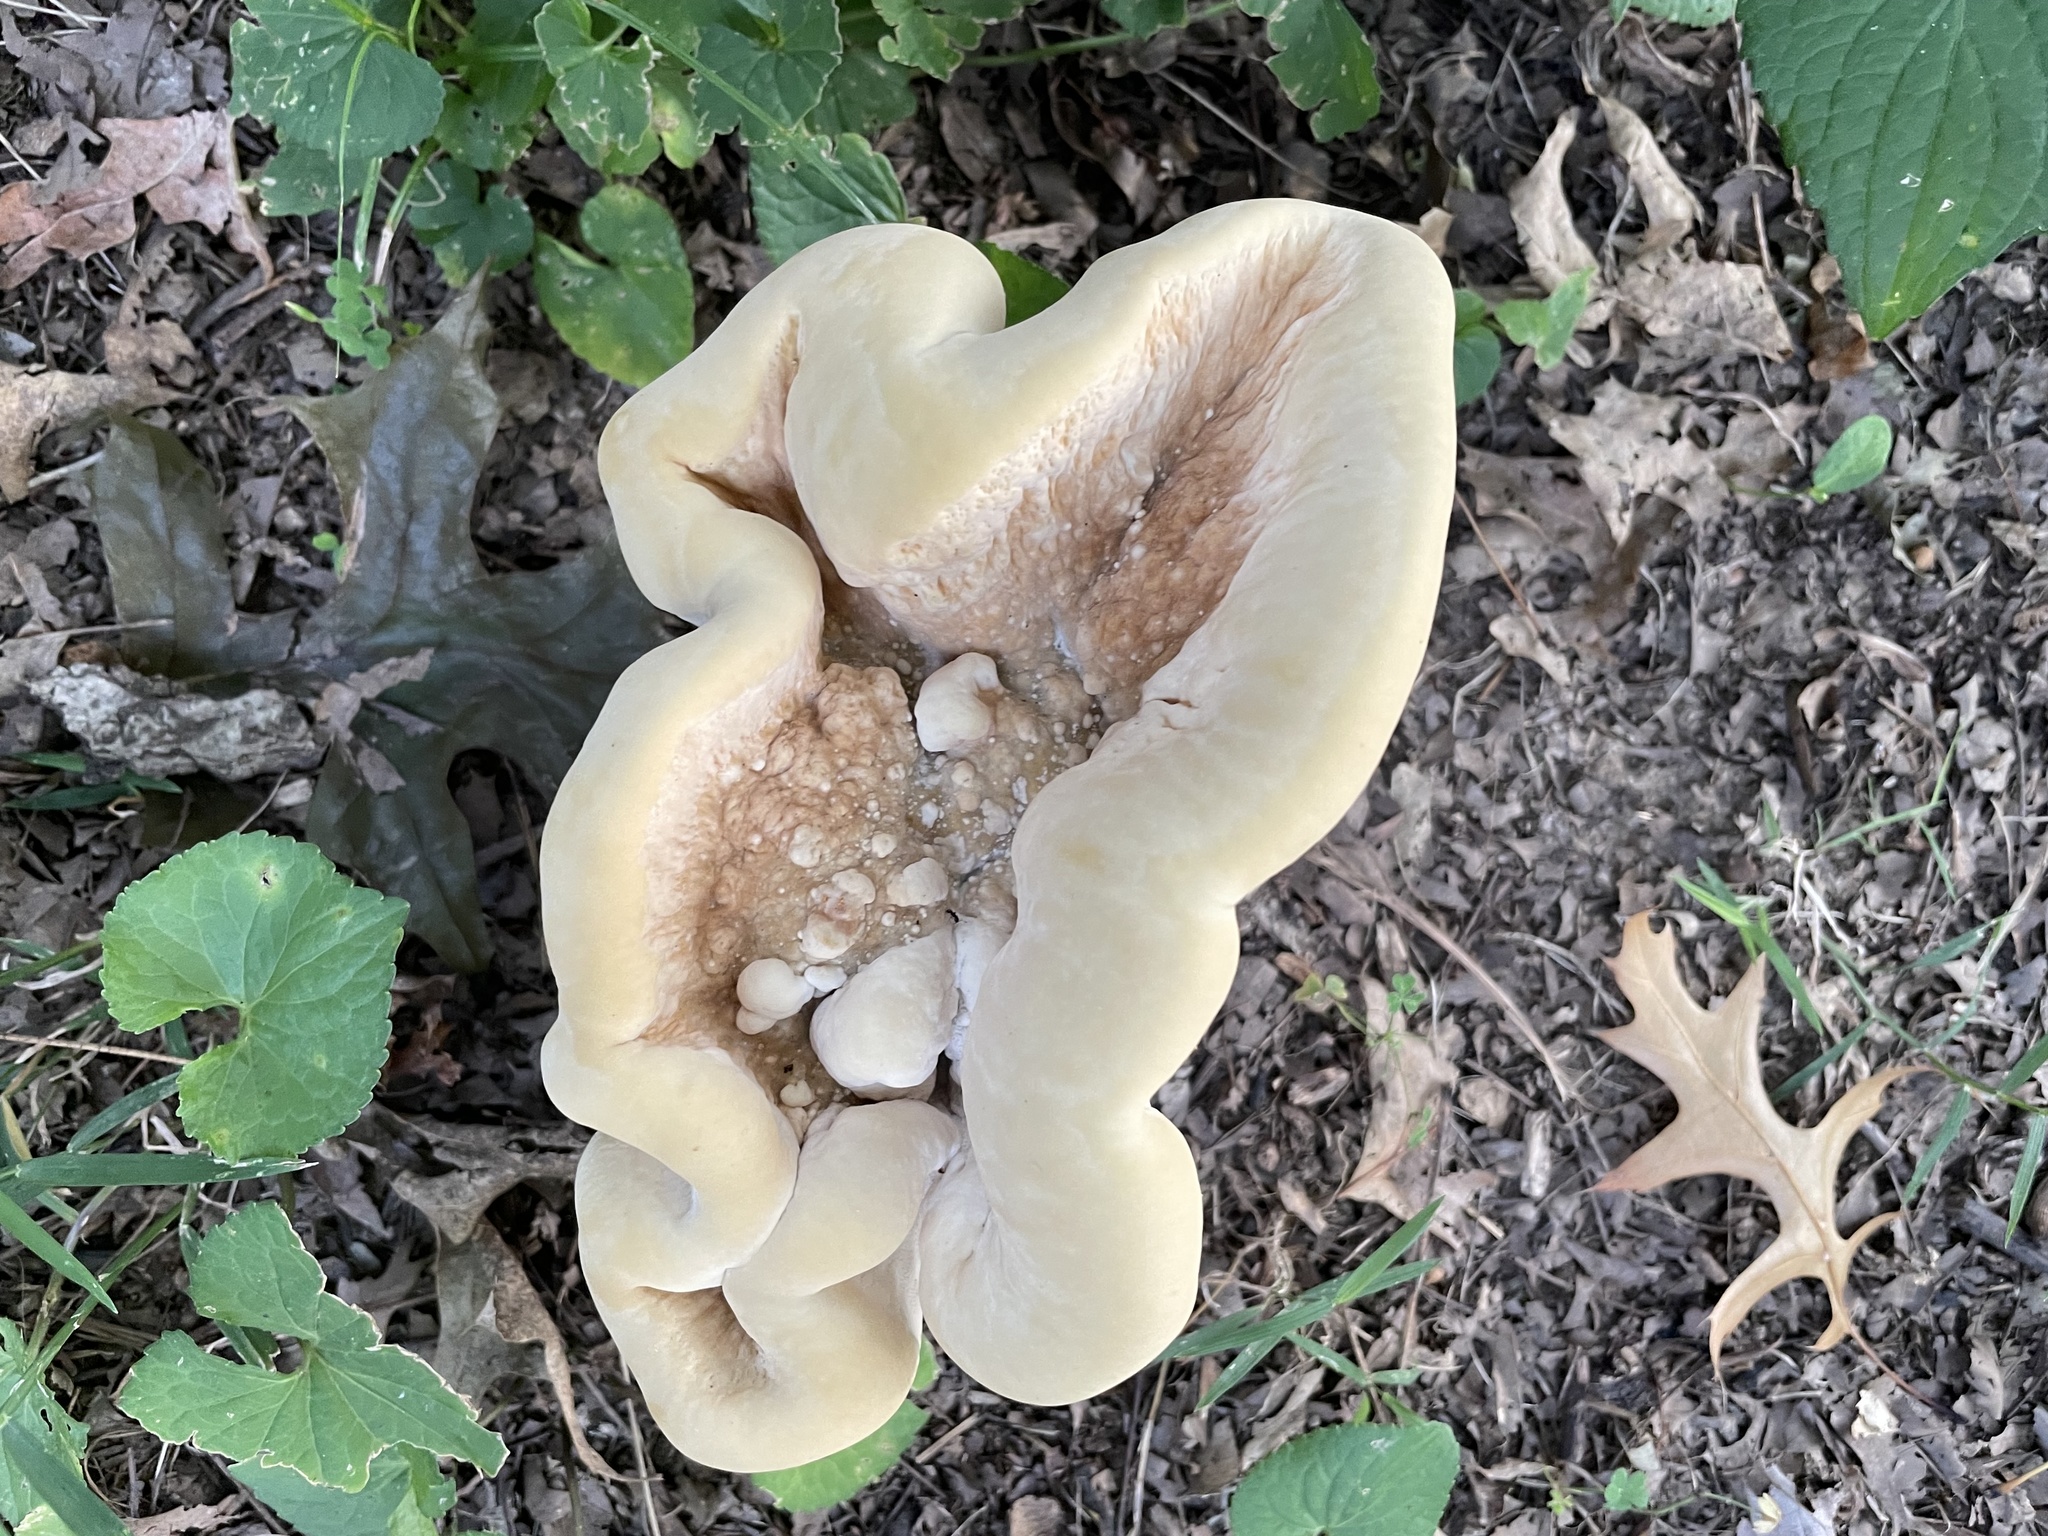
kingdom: Fungi
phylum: Basidiomycota
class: Agaricomycetes
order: Russulales
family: Bondarzewiaceae
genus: Bondarzewia
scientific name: Bondarzewia berkeleyi
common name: Berkeley's polypore
